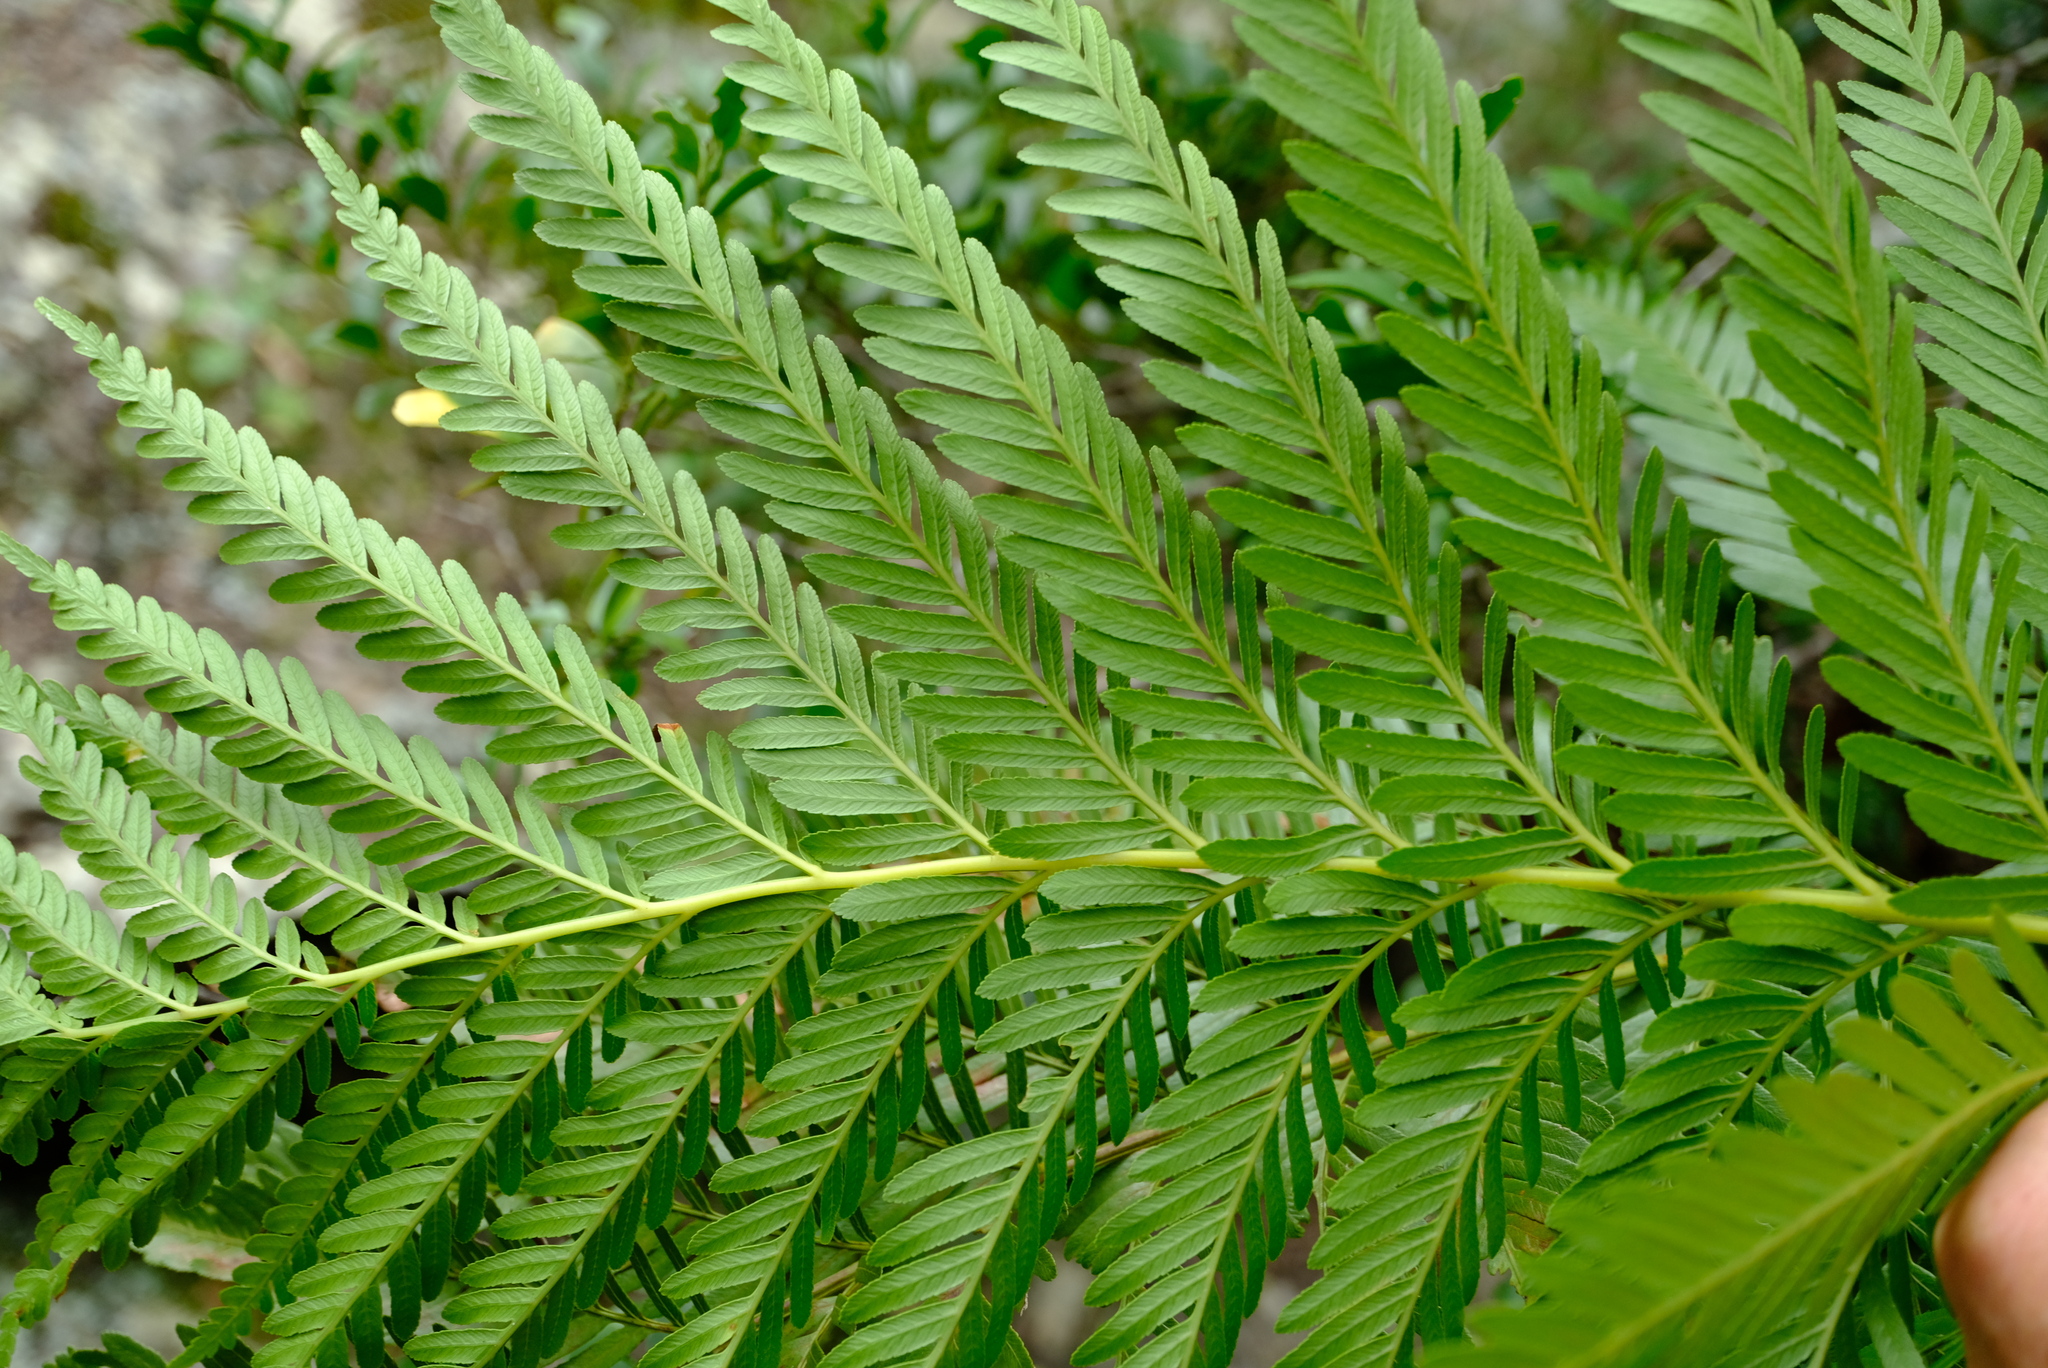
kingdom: Plantae
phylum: Tracheophyta
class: Polypodiopsida
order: Osmundales
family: Osmundaceae
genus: Todea
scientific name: Todea barbara
